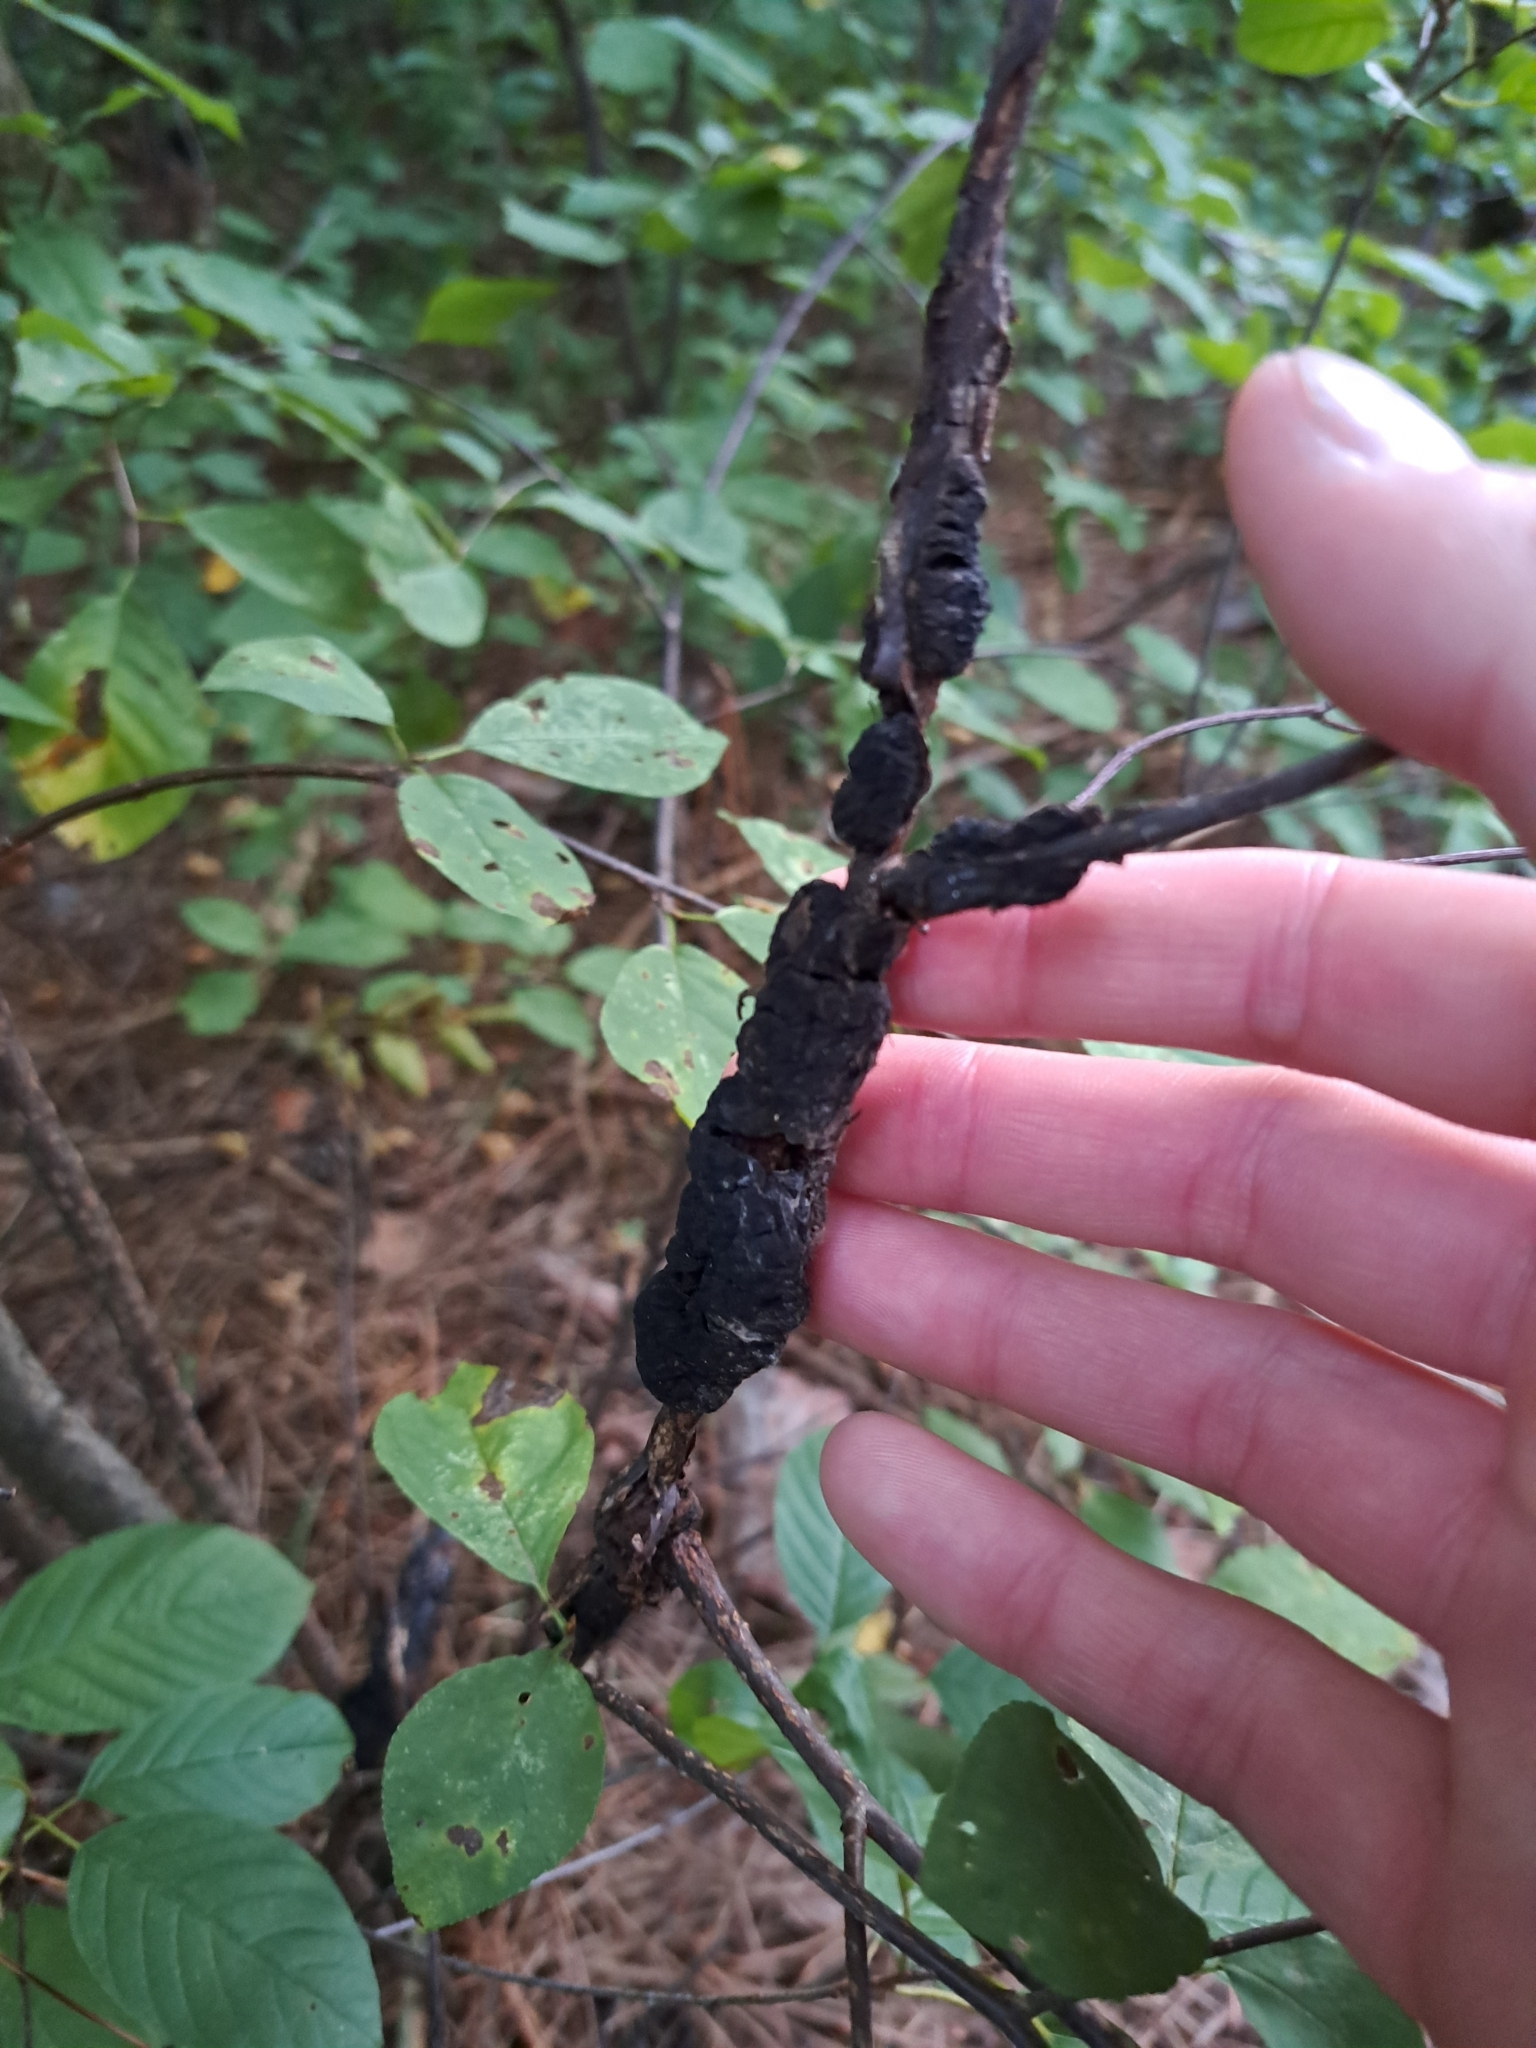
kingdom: Fungi
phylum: Ascomycota
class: Dothideomycetes
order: Venturiales
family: Venturiaceae
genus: Apiosporina
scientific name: Apiosporina morbosa
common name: Black knot
